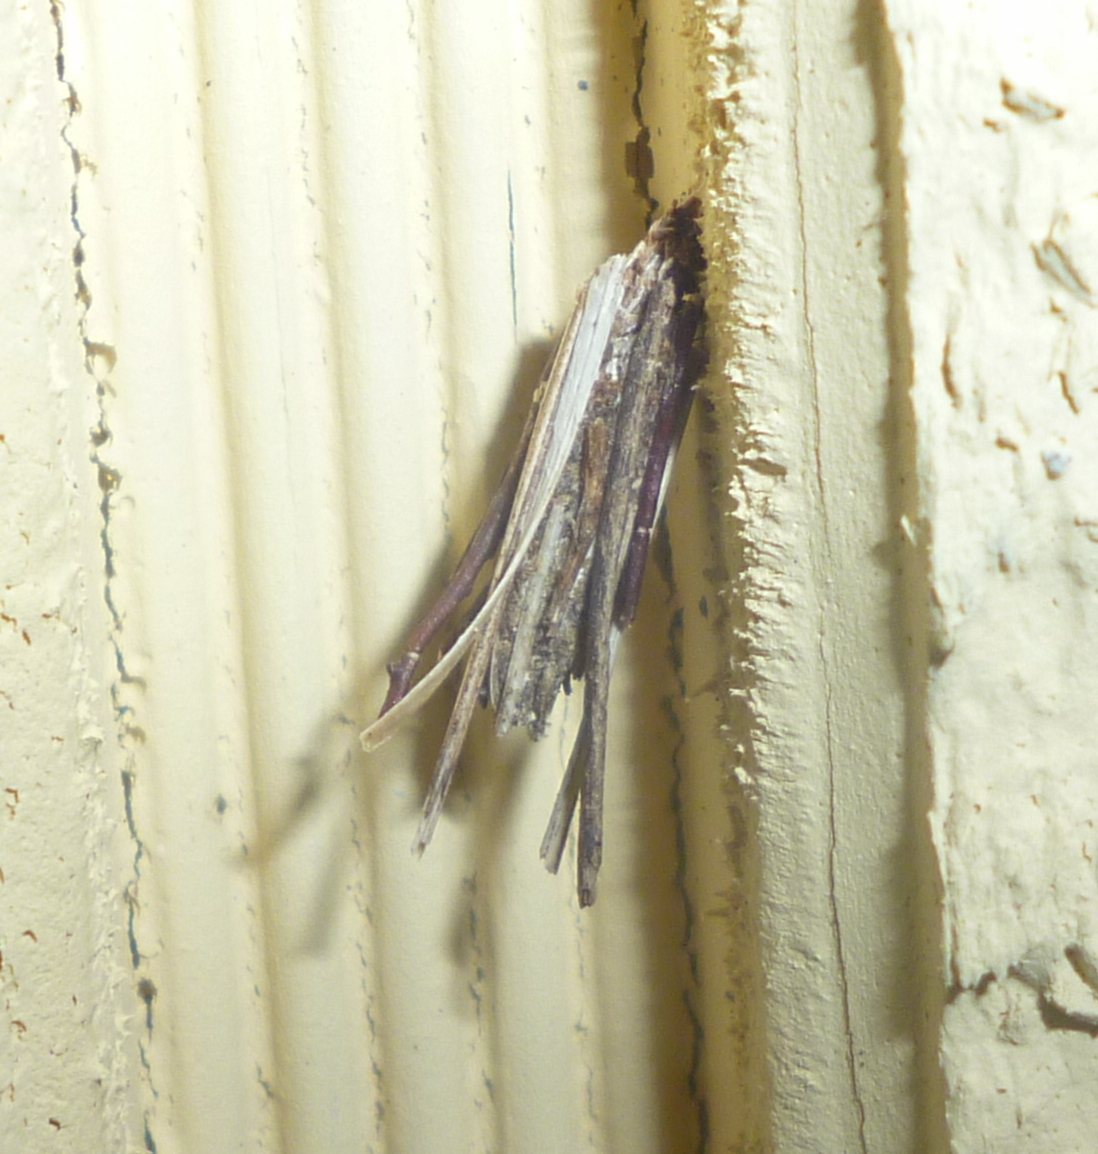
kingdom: Animalia
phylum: Arthropoda
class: Insecta
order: Lepidoptera
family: Psychidae
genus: Psyche
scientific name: Psyche casta
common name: Common sweep
